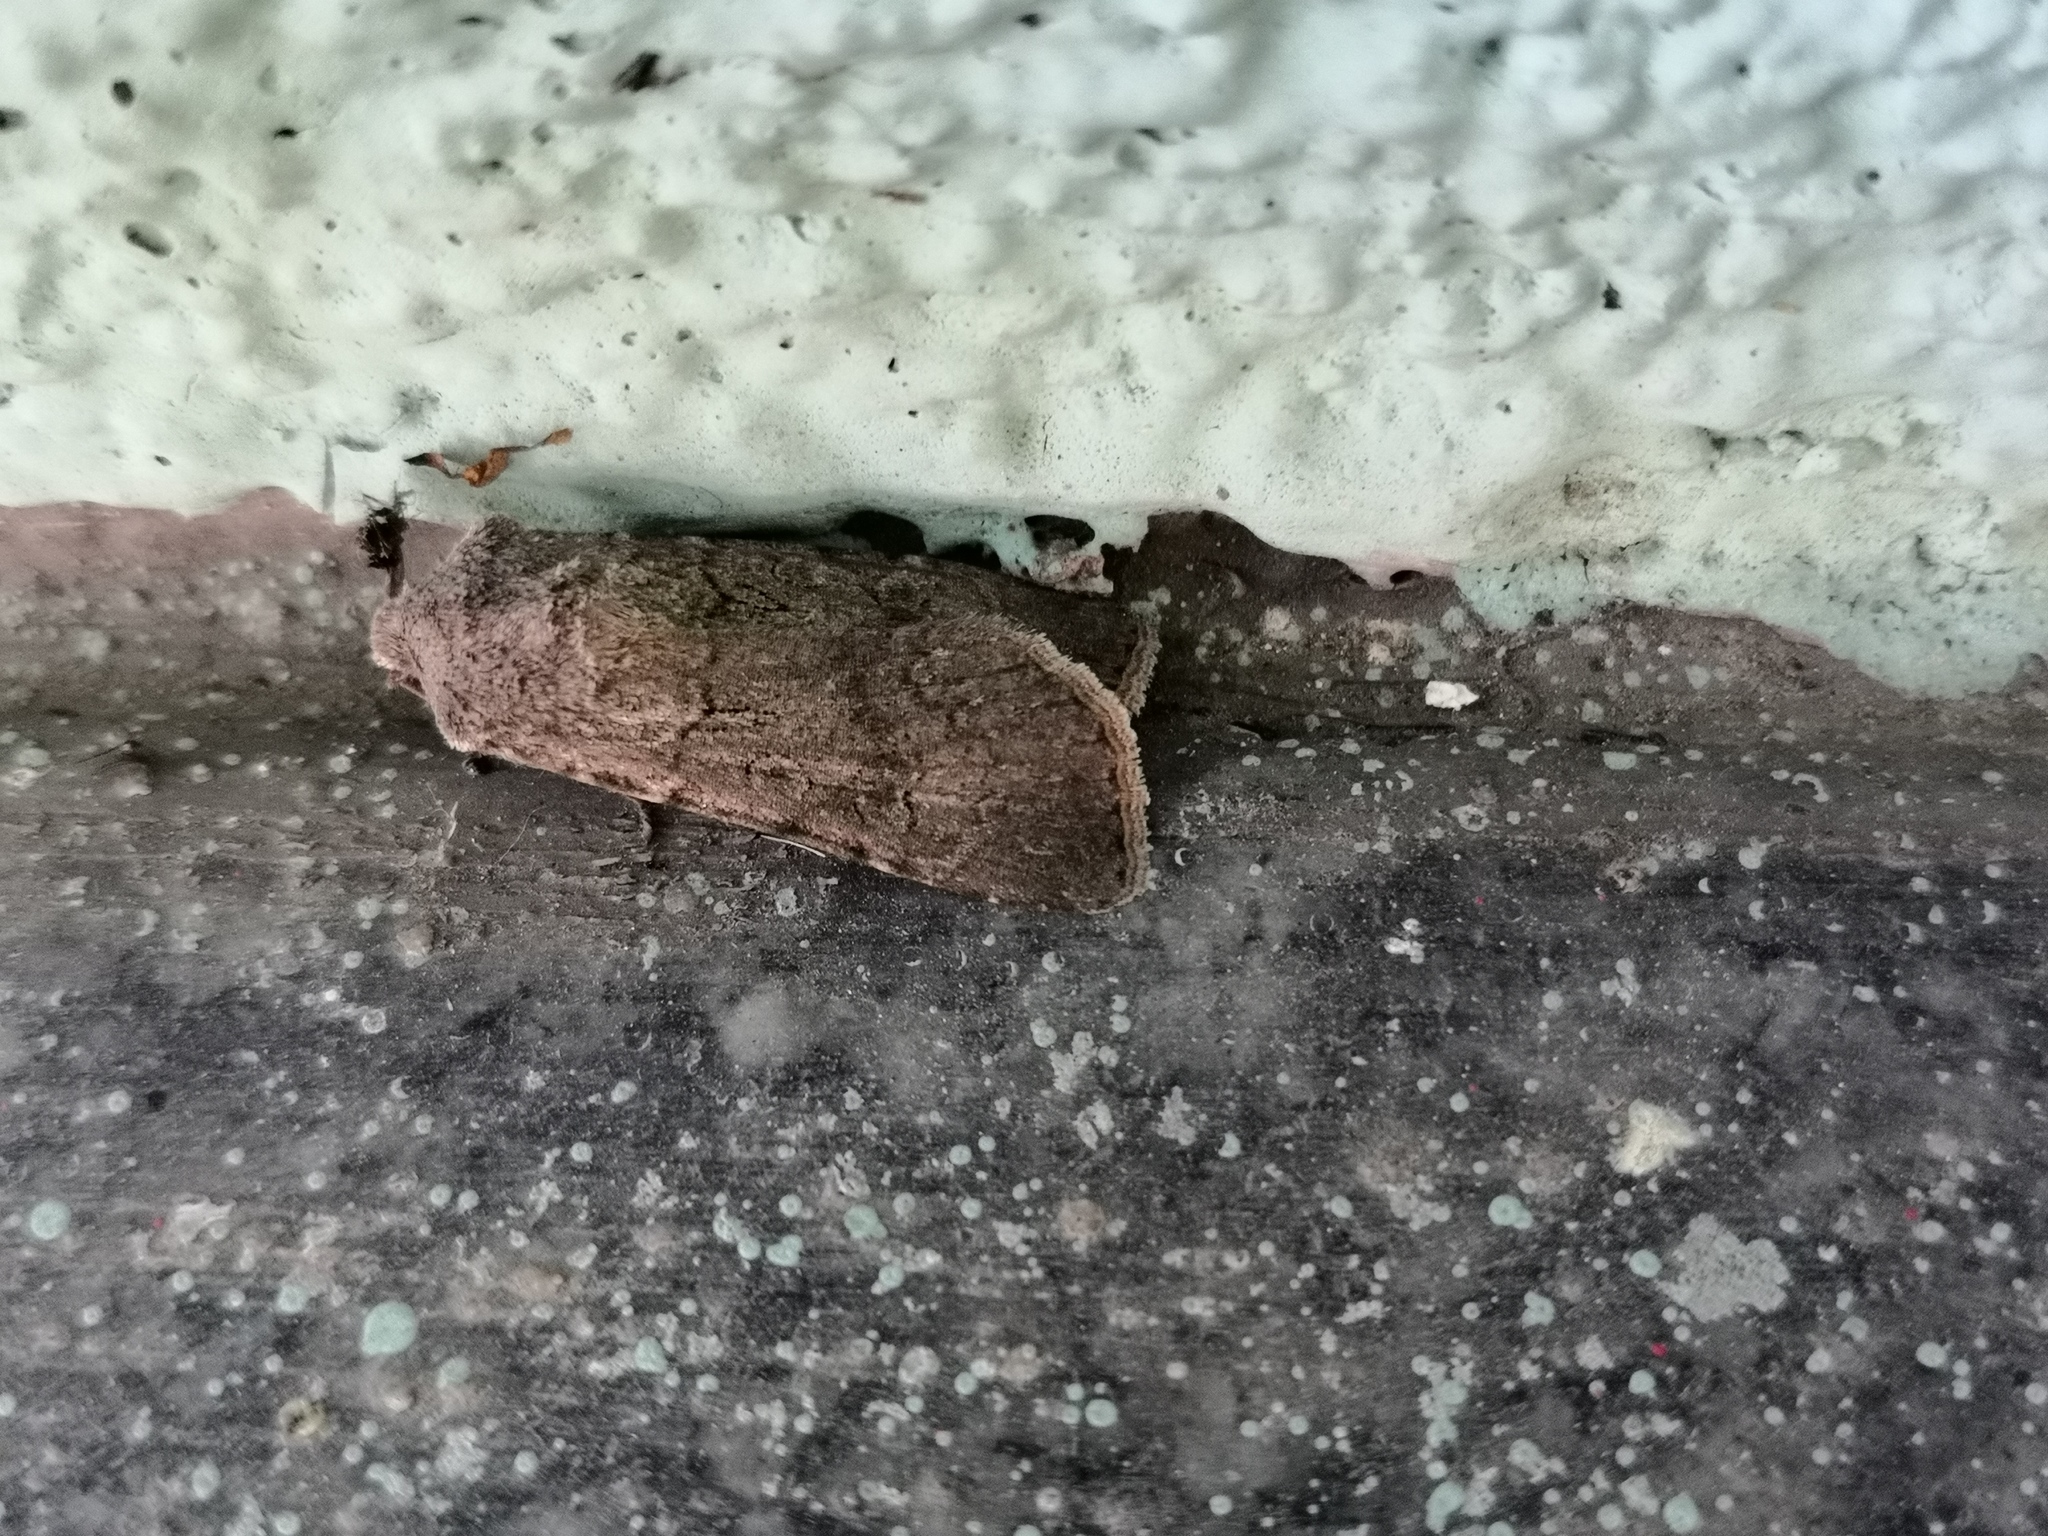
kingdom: Animalia
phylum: Arthropoda
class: Insecta
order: Lepidoptera
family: Noctuidae
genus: Agrotis
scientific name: Agrotis segetum
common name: Turnip moth
